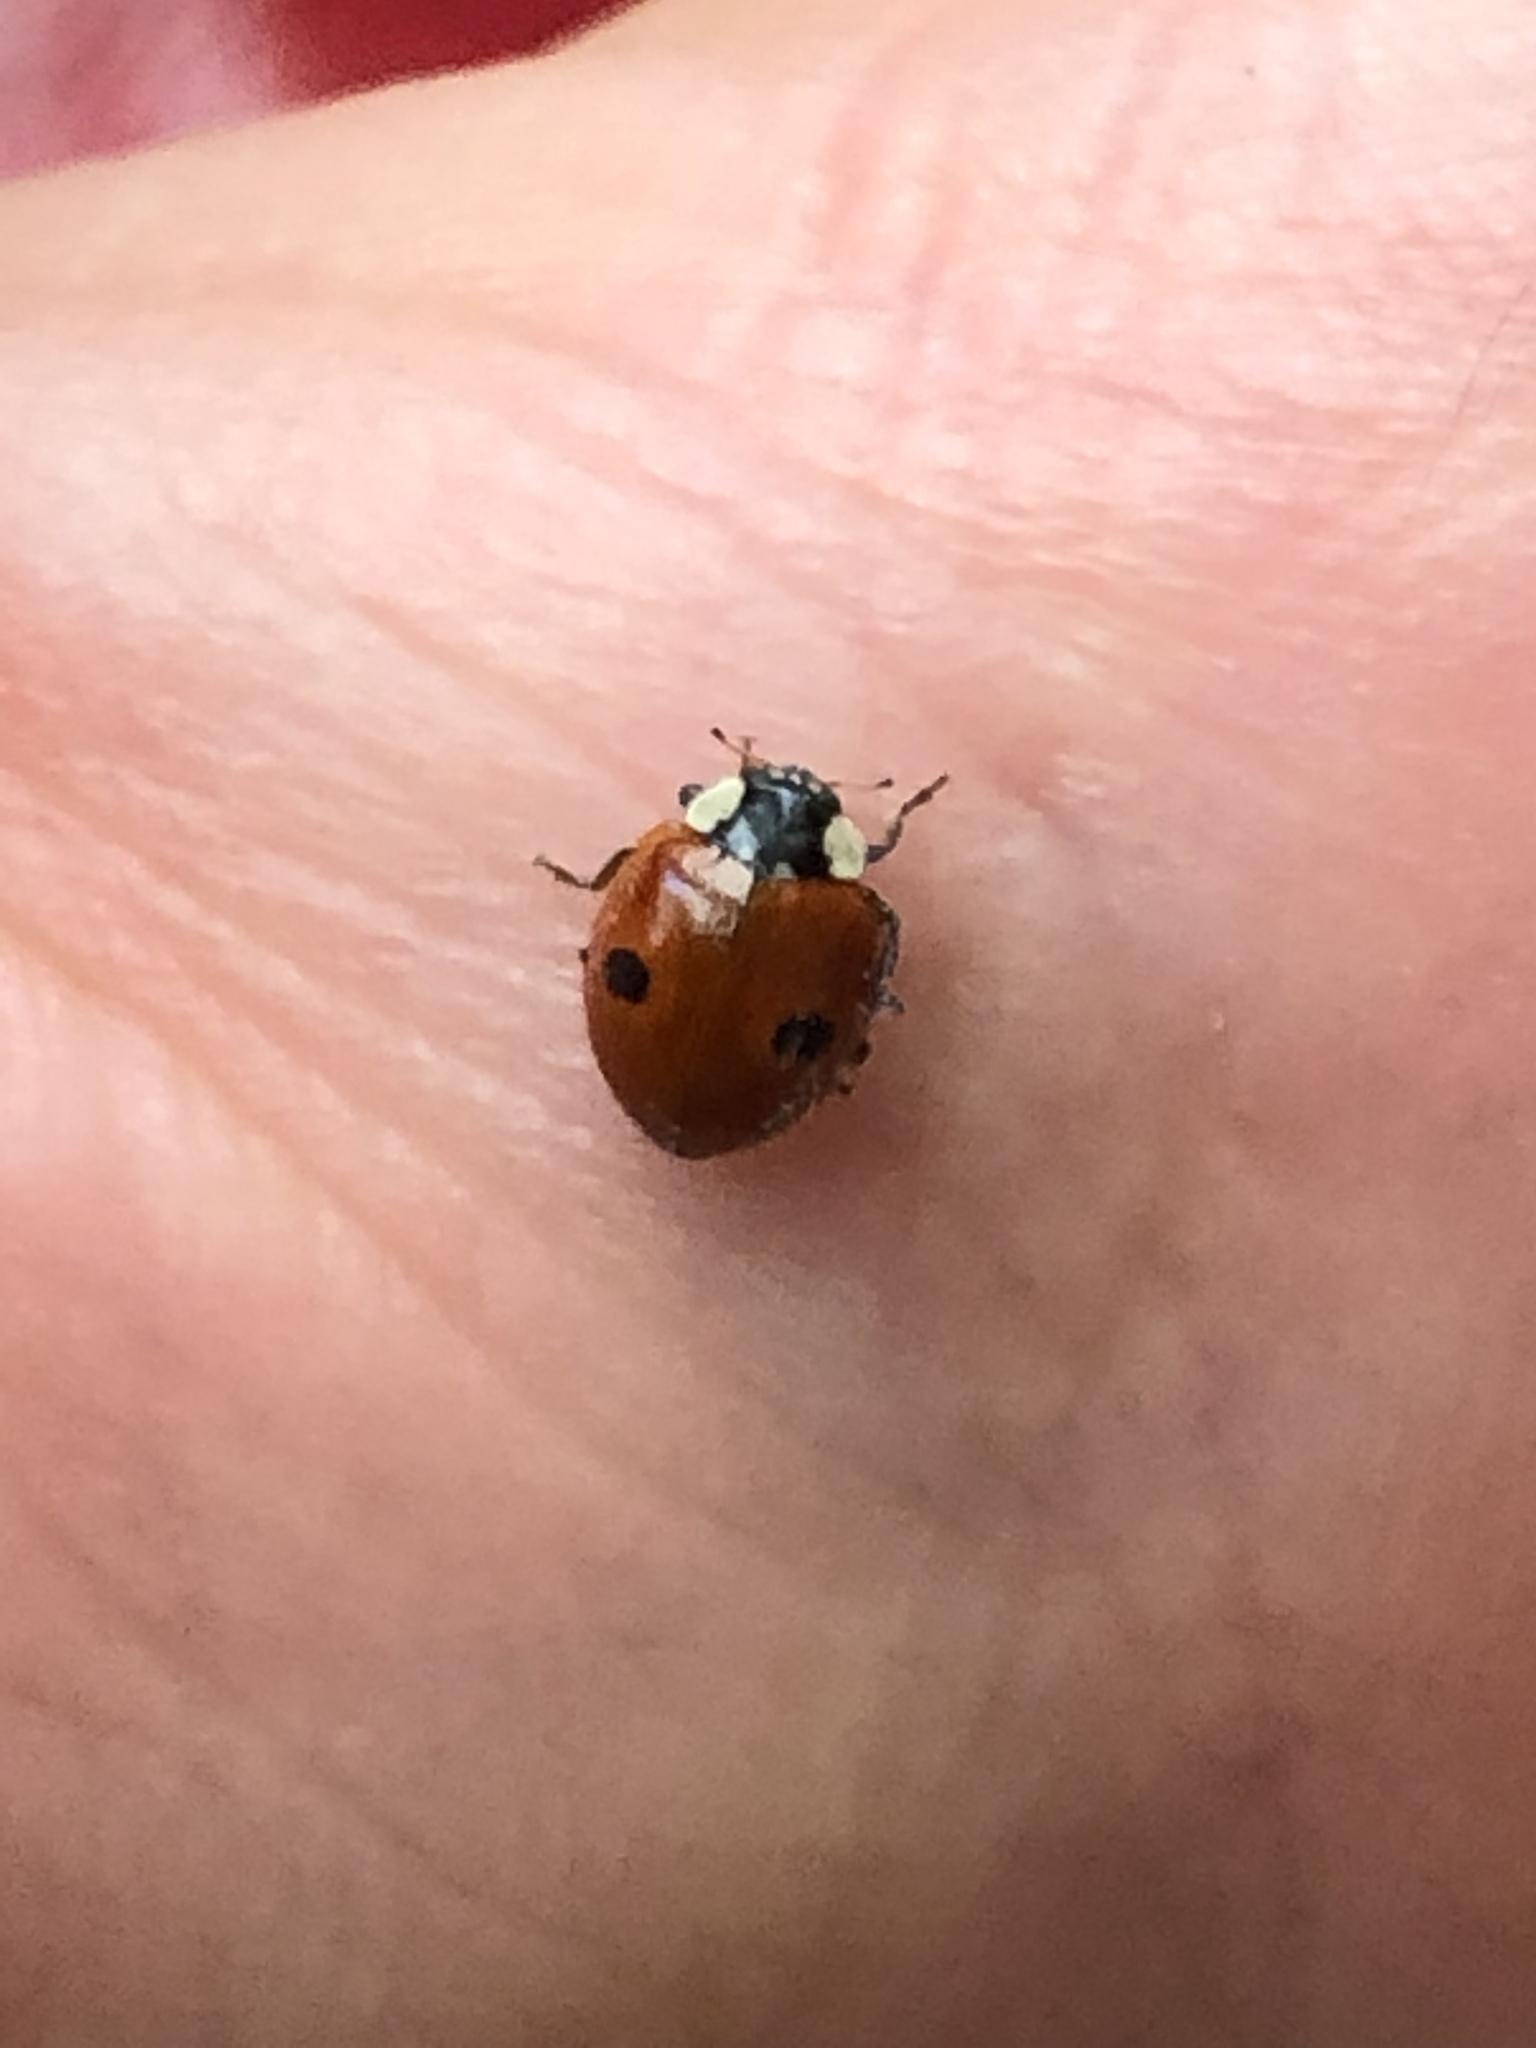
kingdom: Animalia
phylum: Arthropoda
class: Insecta
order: Coleoptera
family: Coccinellidae
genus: Adalia
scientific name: Adalia bipunctata
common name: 2-spot ladybird
